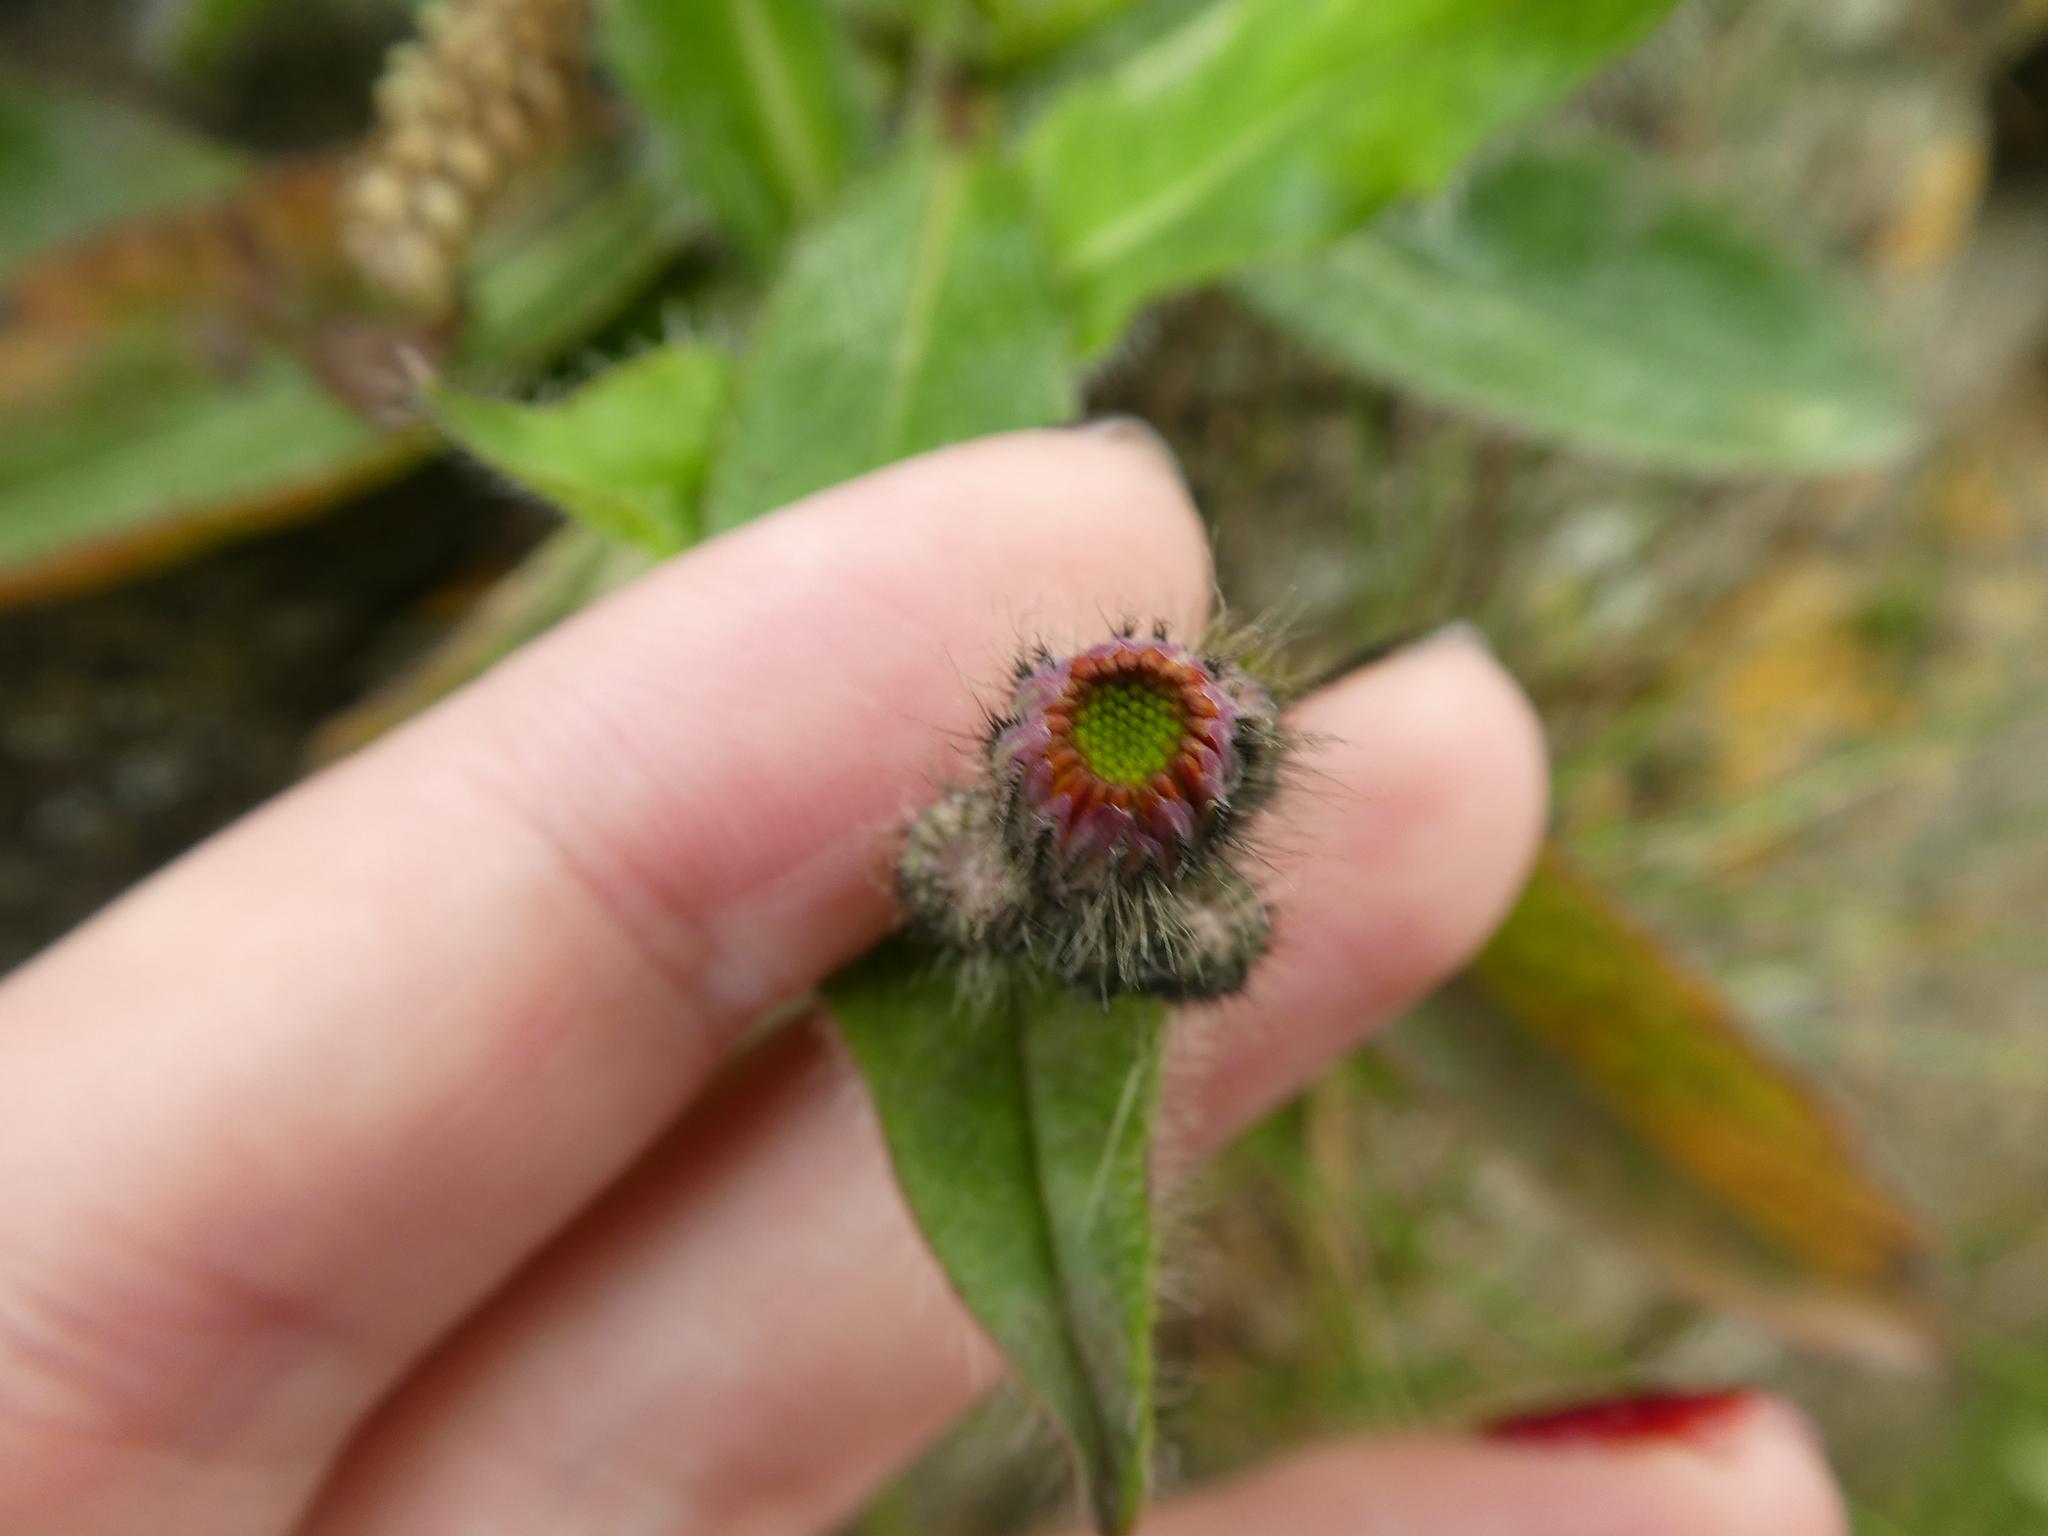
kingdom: Plantae
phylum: Tracheophyta
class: Magnoliopsida
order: Asterales
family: Asteraceae
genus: Pilosella
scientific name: Pilosella aurantiaca
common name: Fox-and-cubs
